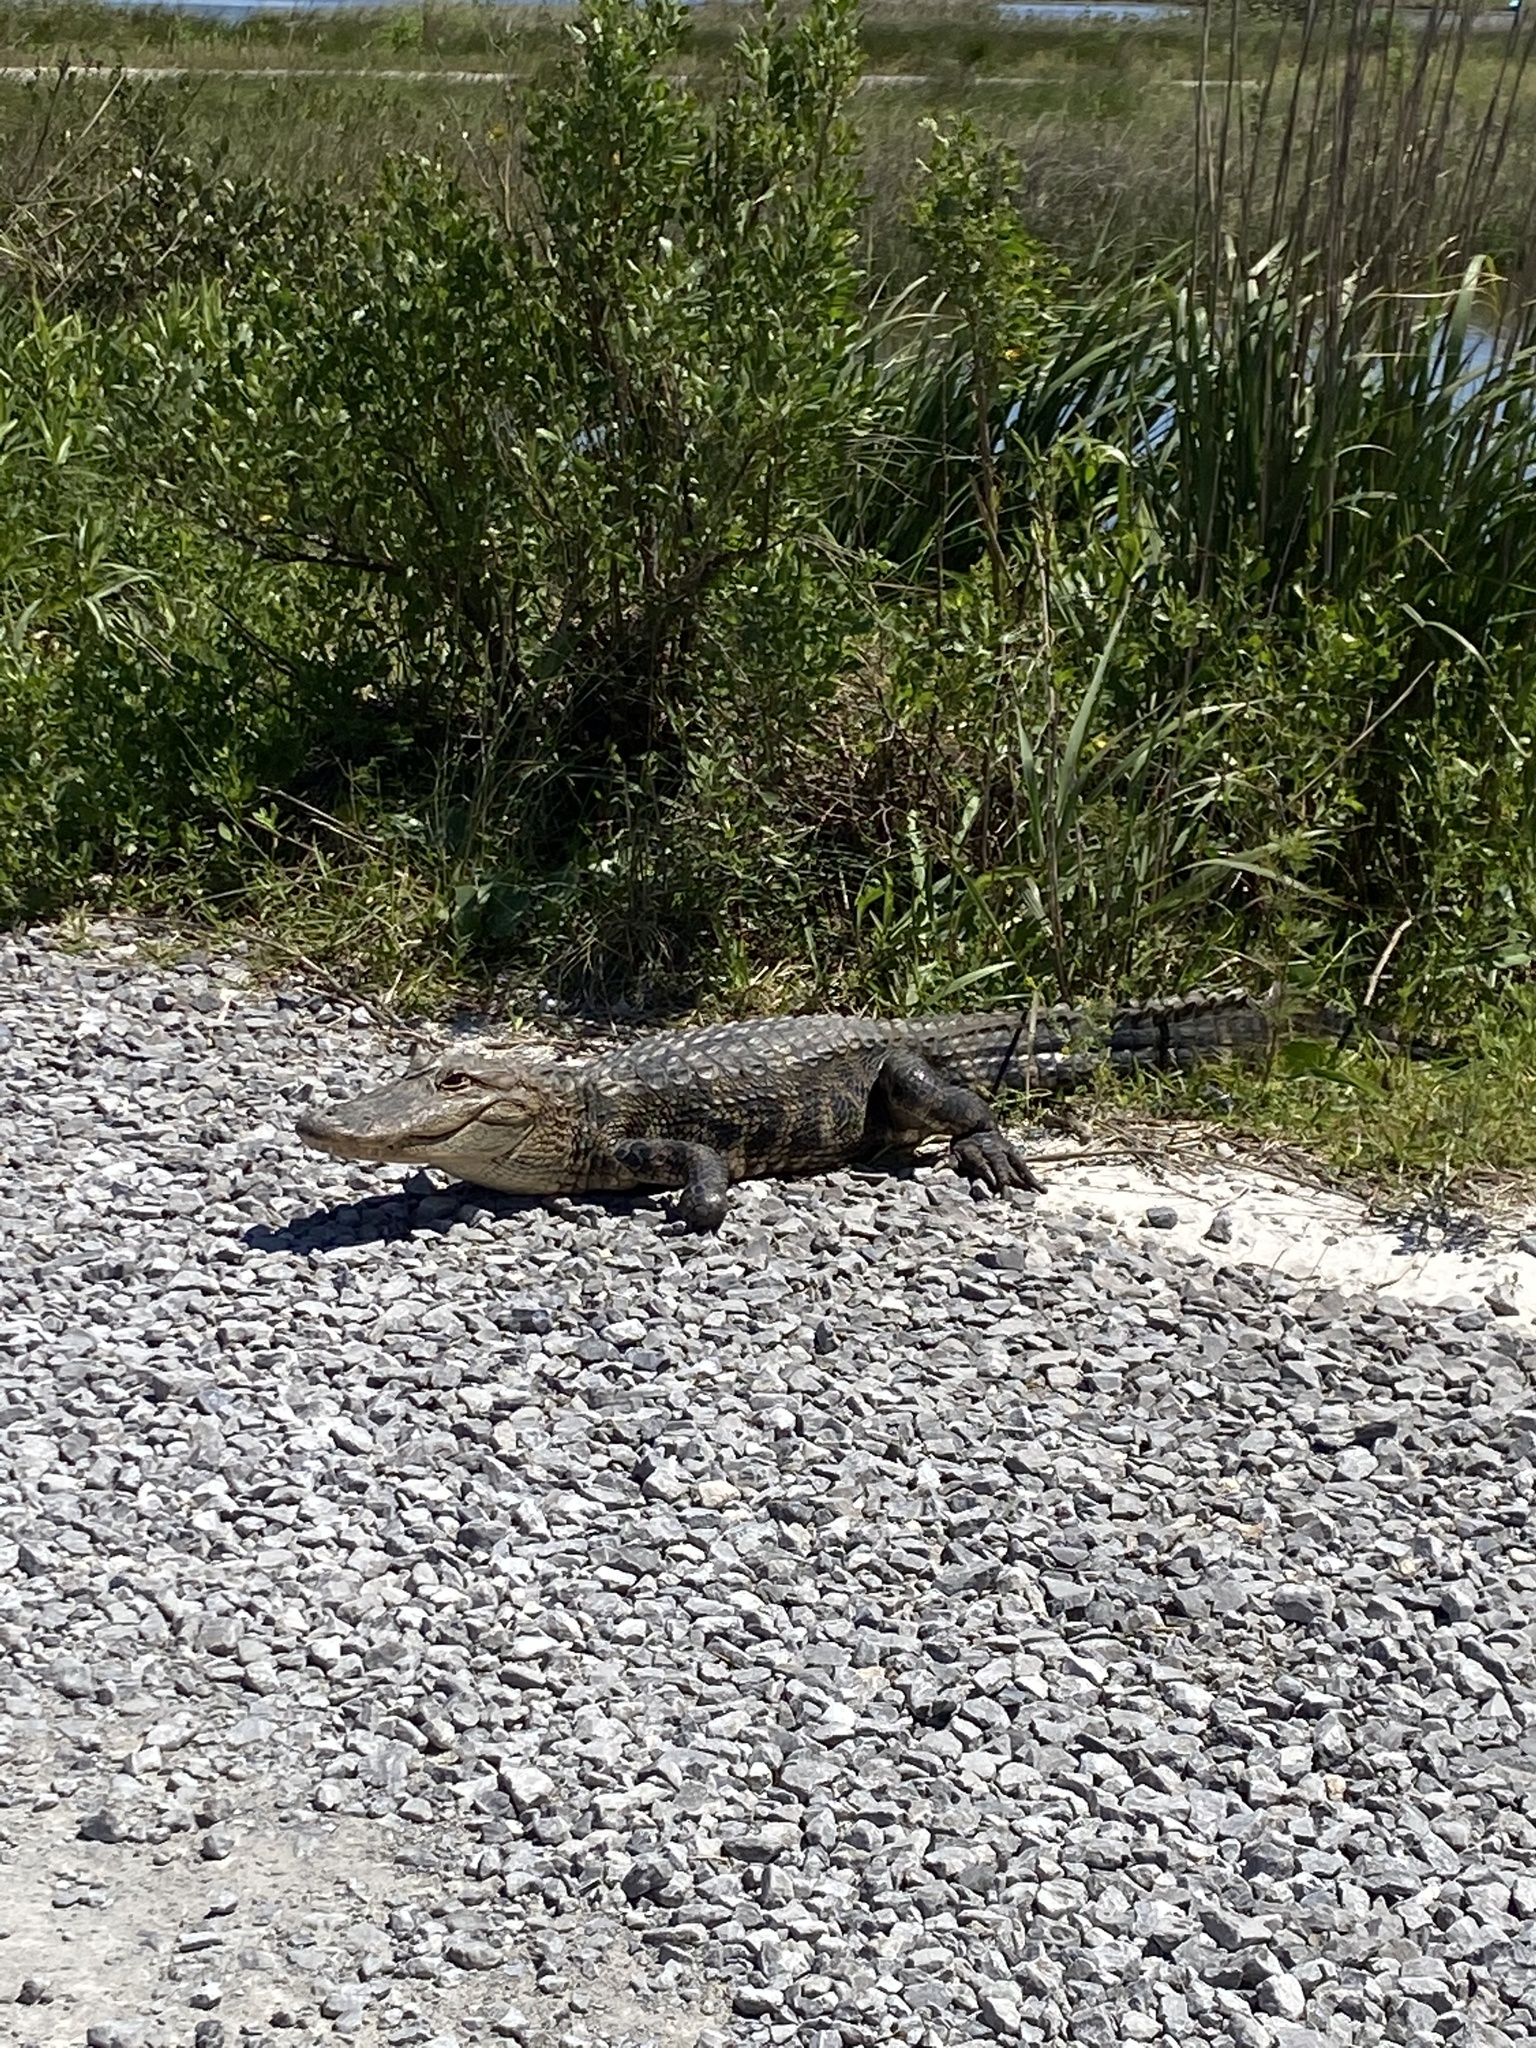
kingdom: Animalia
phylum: Chordata
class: Crocodylia
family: Alligatoridae
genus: Alligator
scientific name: Alligator mississippiensis
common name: American alligator
